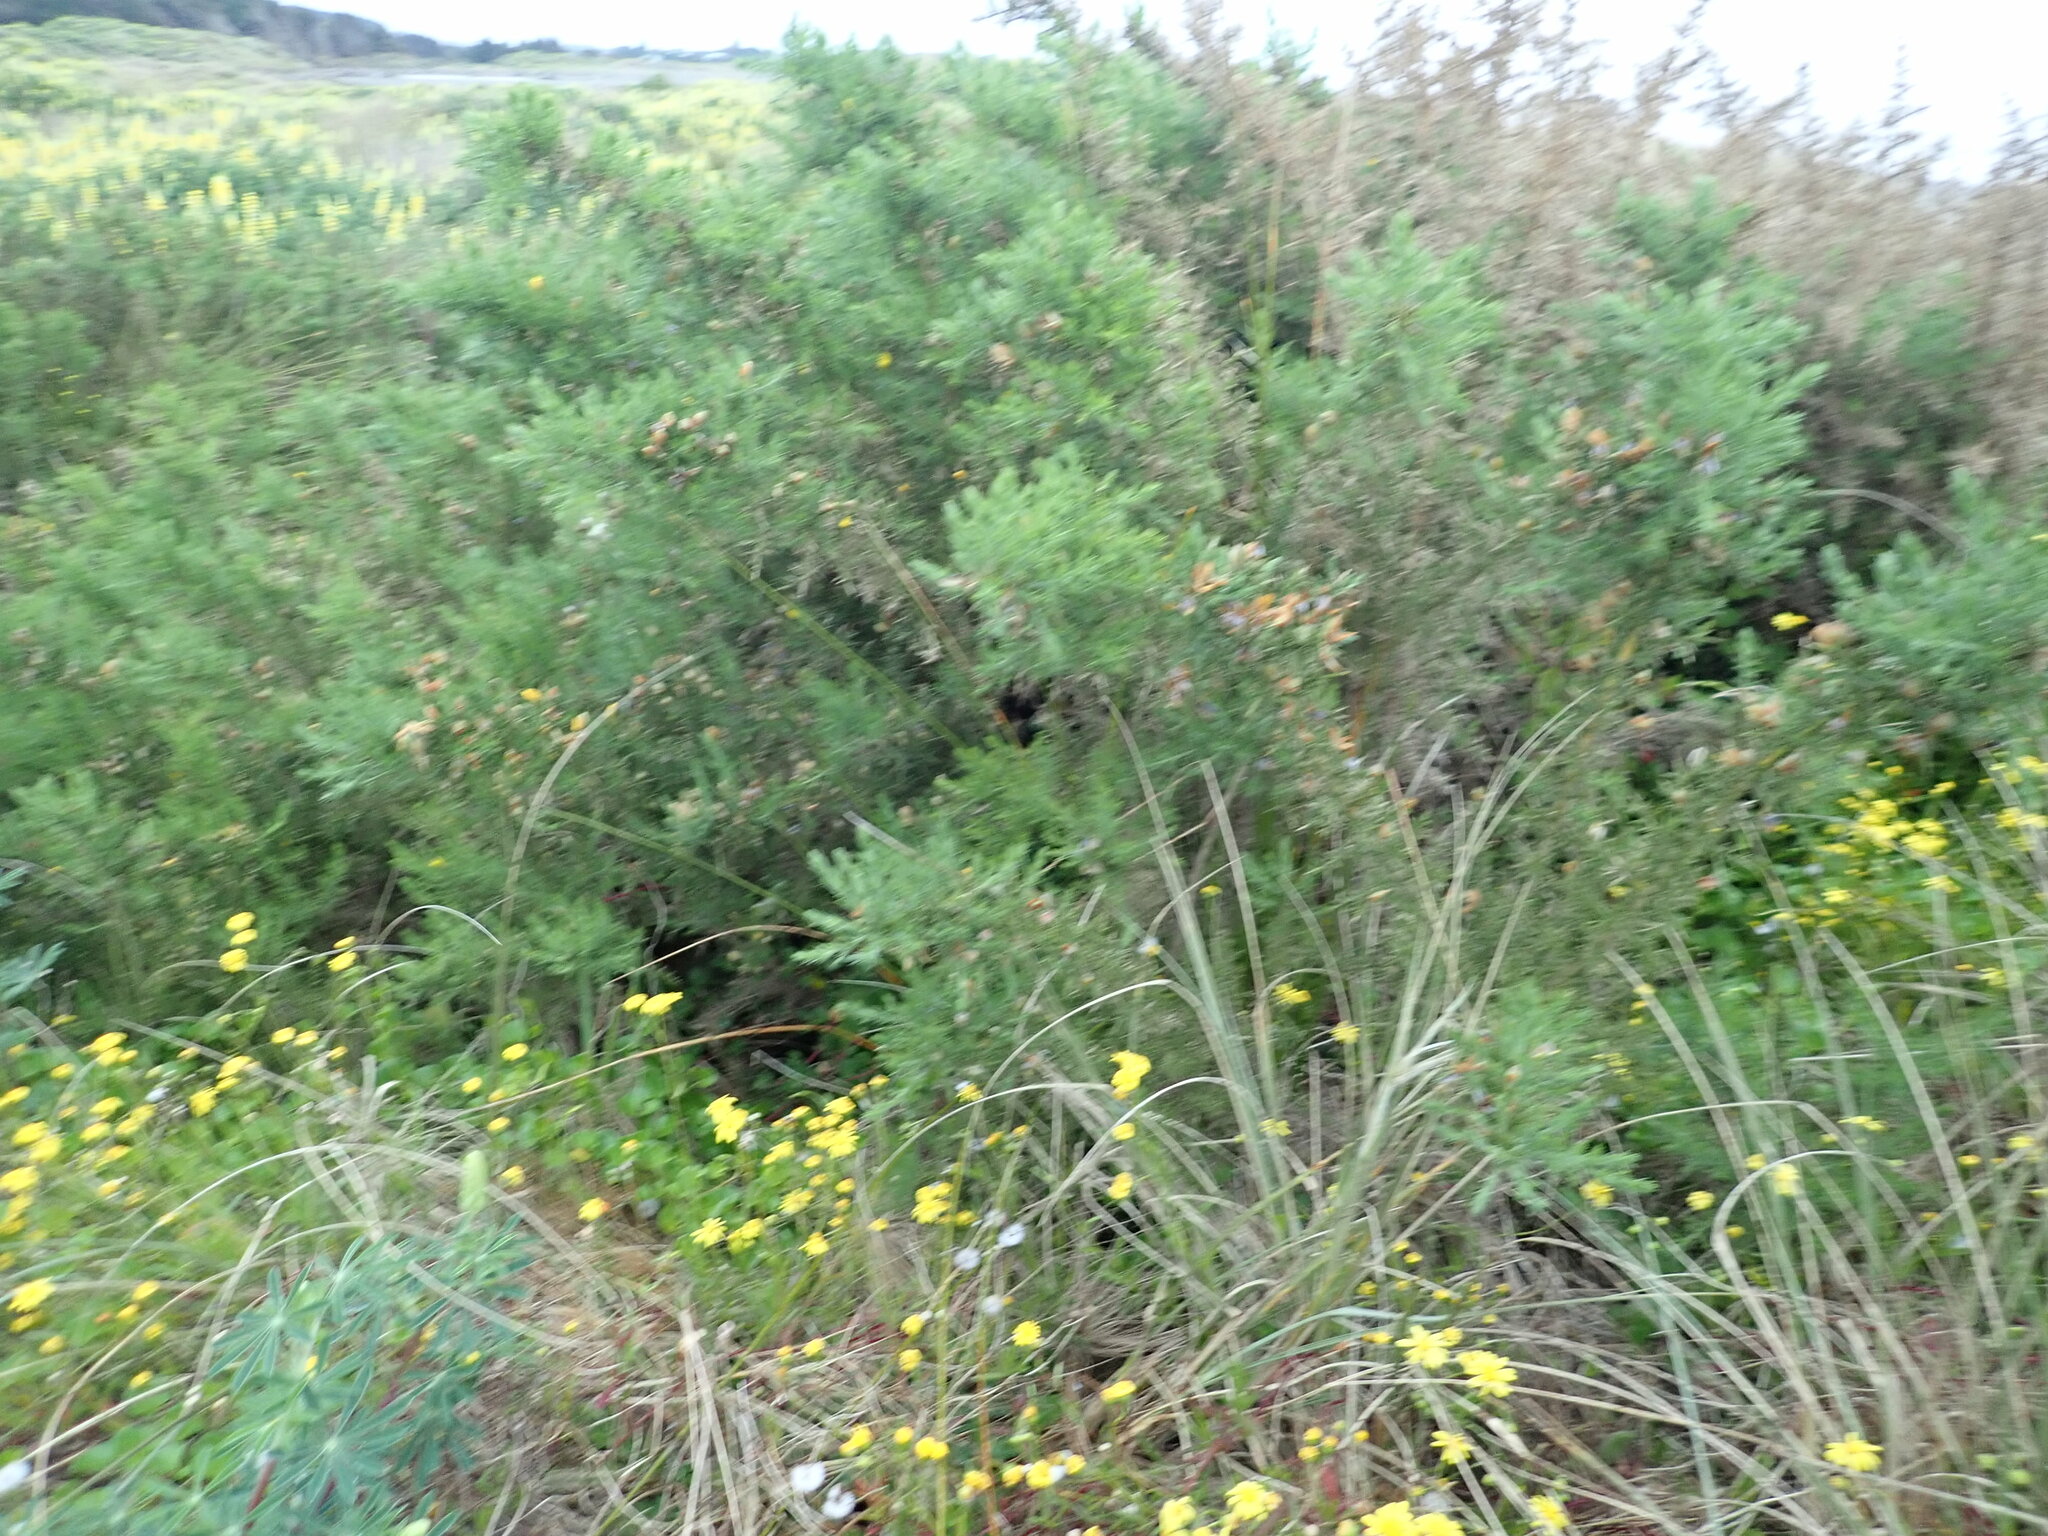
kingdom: Plantae
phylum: Tracheophyta
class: Magnoliopsida
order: Fabales
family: Fabaceae
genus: Ulex
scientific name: Ulex europaeus
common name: Common gorse
